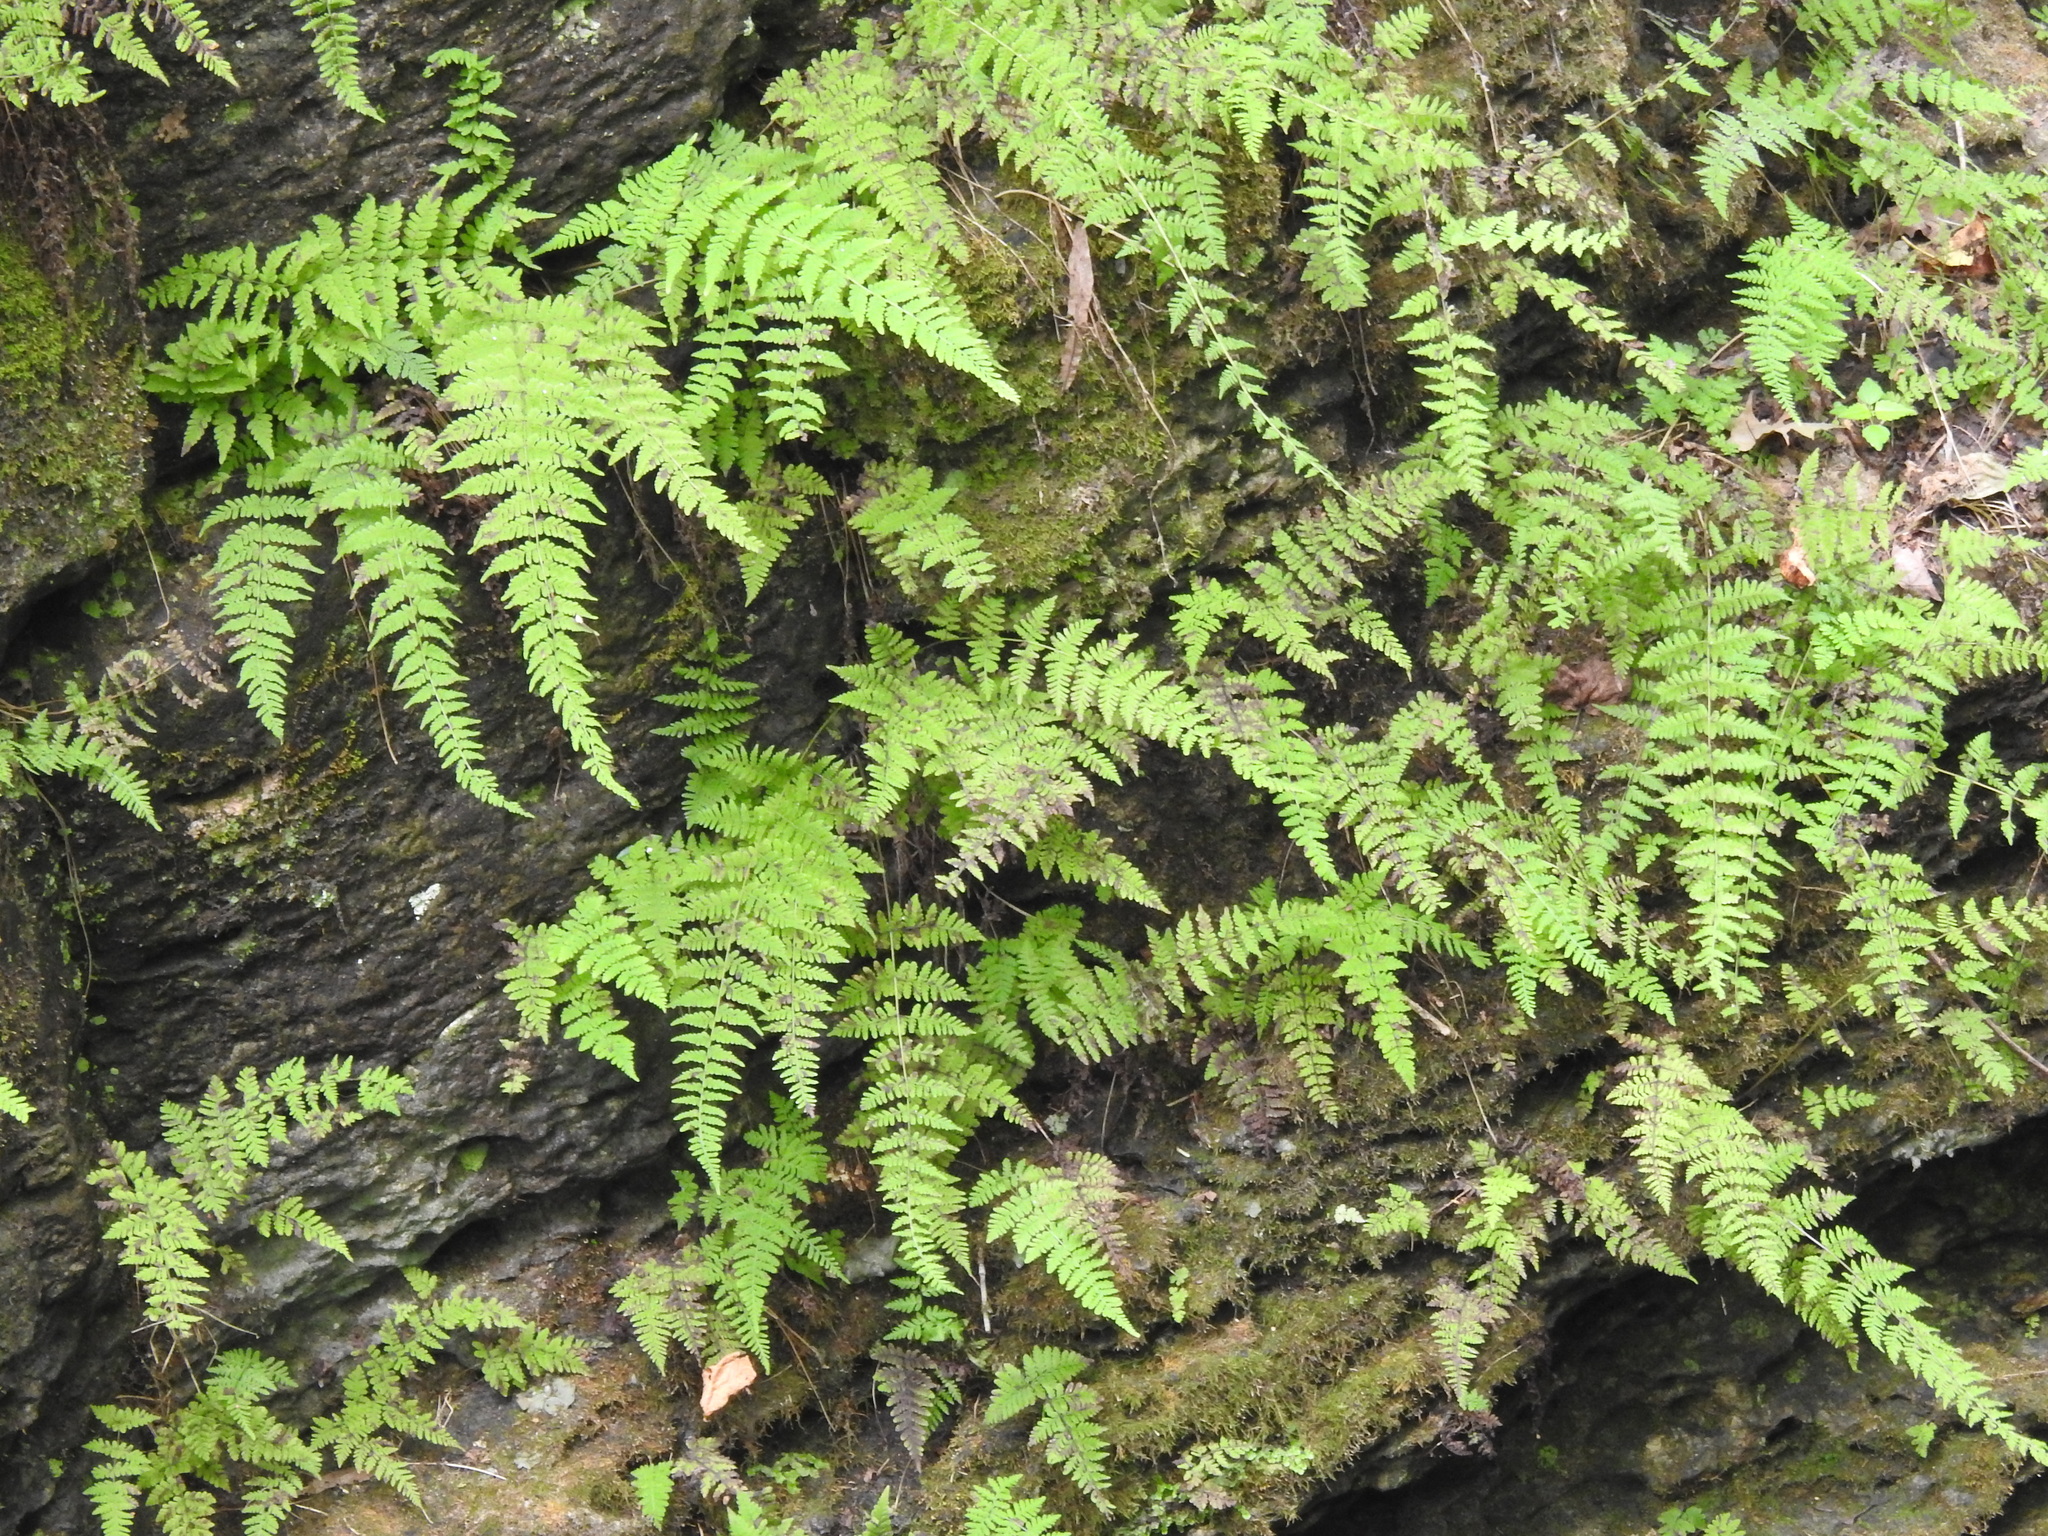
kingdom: Plantae
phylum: Tracheophyta
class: Polypodiopsida
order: Polypodiales
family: Cystopteridaceae
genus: Cystopteris
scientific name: Cystopteris bulbifera
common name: Bulblet bladder fern
